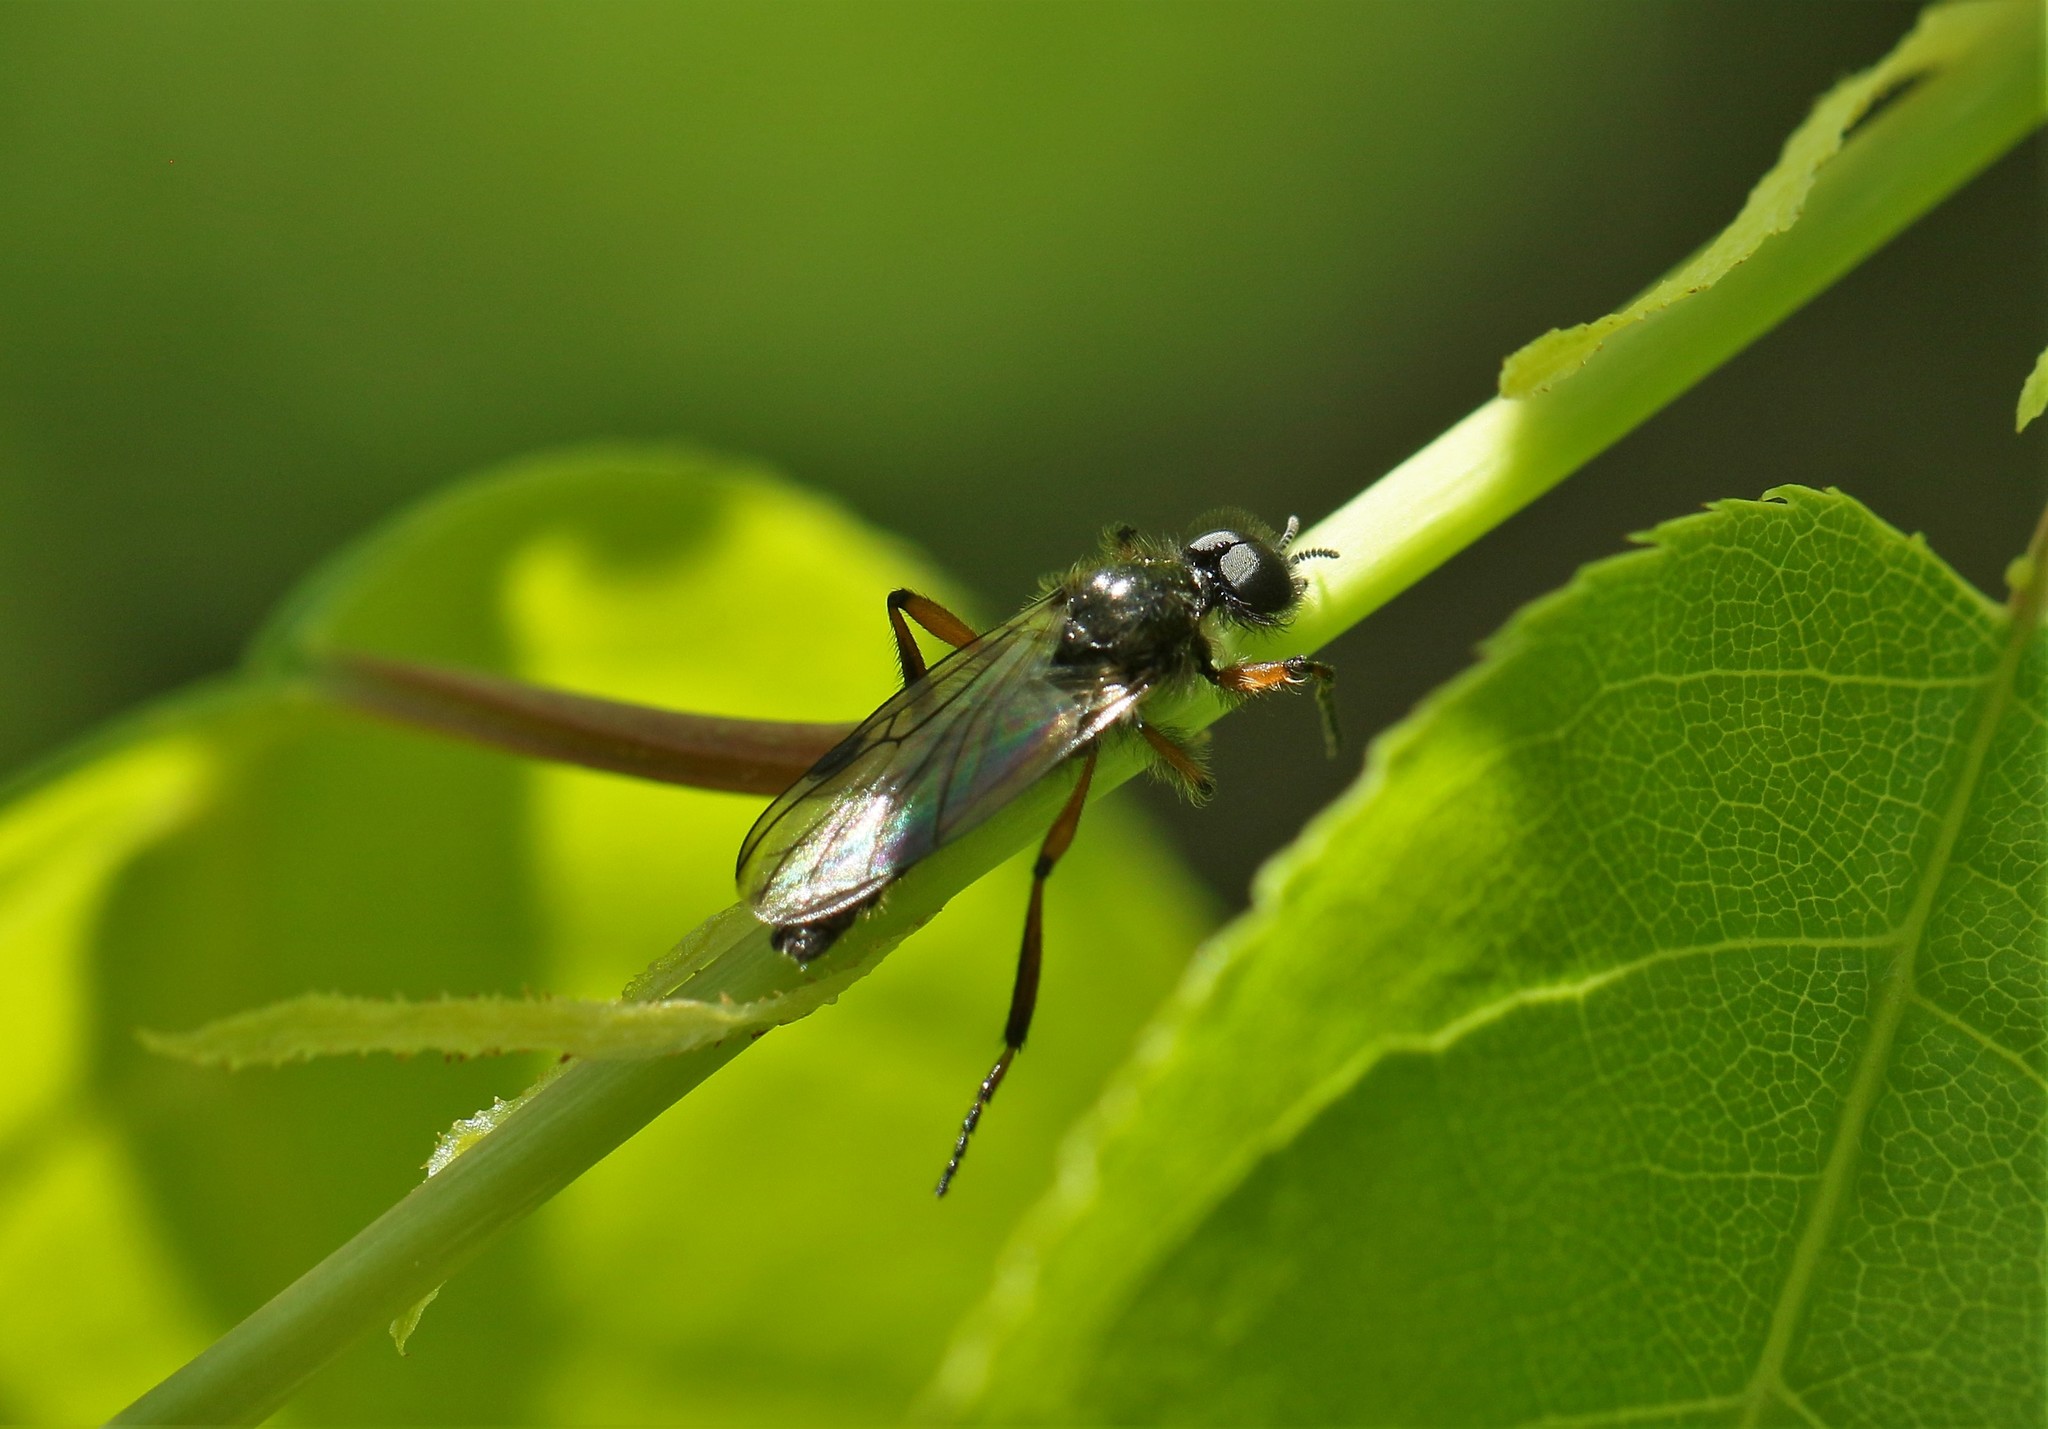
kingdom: Animalia
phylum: Arthropoda
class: Insecta
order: Diptera
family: Bibionidae
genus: Bibio
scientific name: Bibio xanthopus
